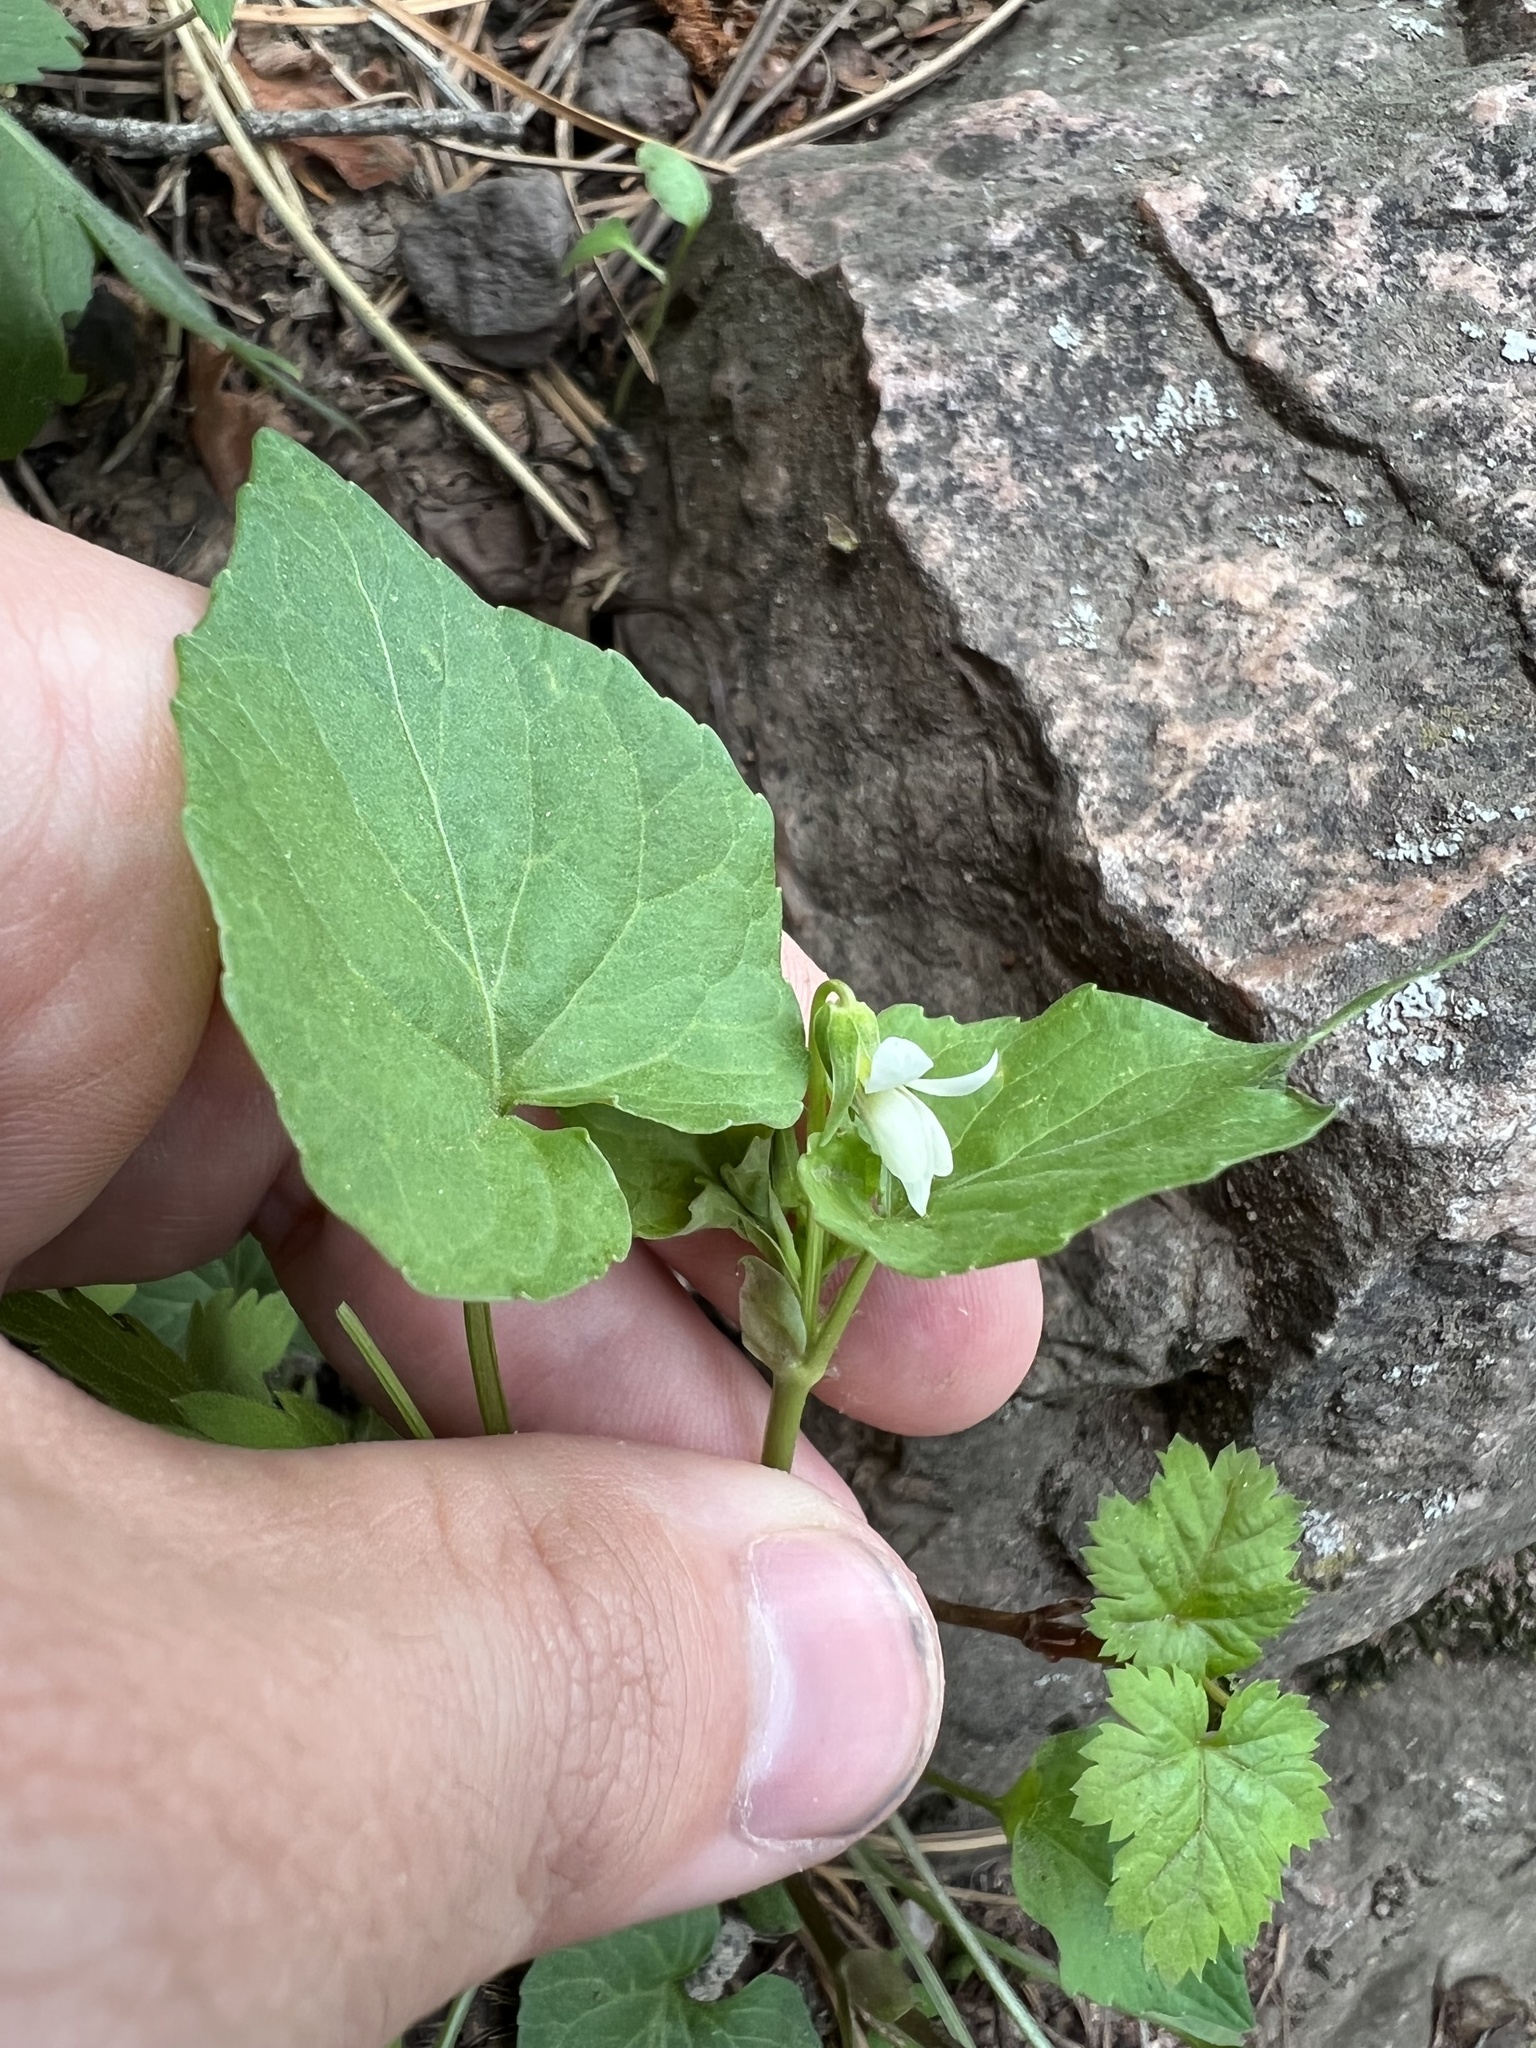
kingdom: Plantae
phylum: Tracheophyta
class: Magnoliopsida
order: Malpighiales
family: Violaceae
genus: Viola
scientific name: Viola canadensis
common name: Canada violet
